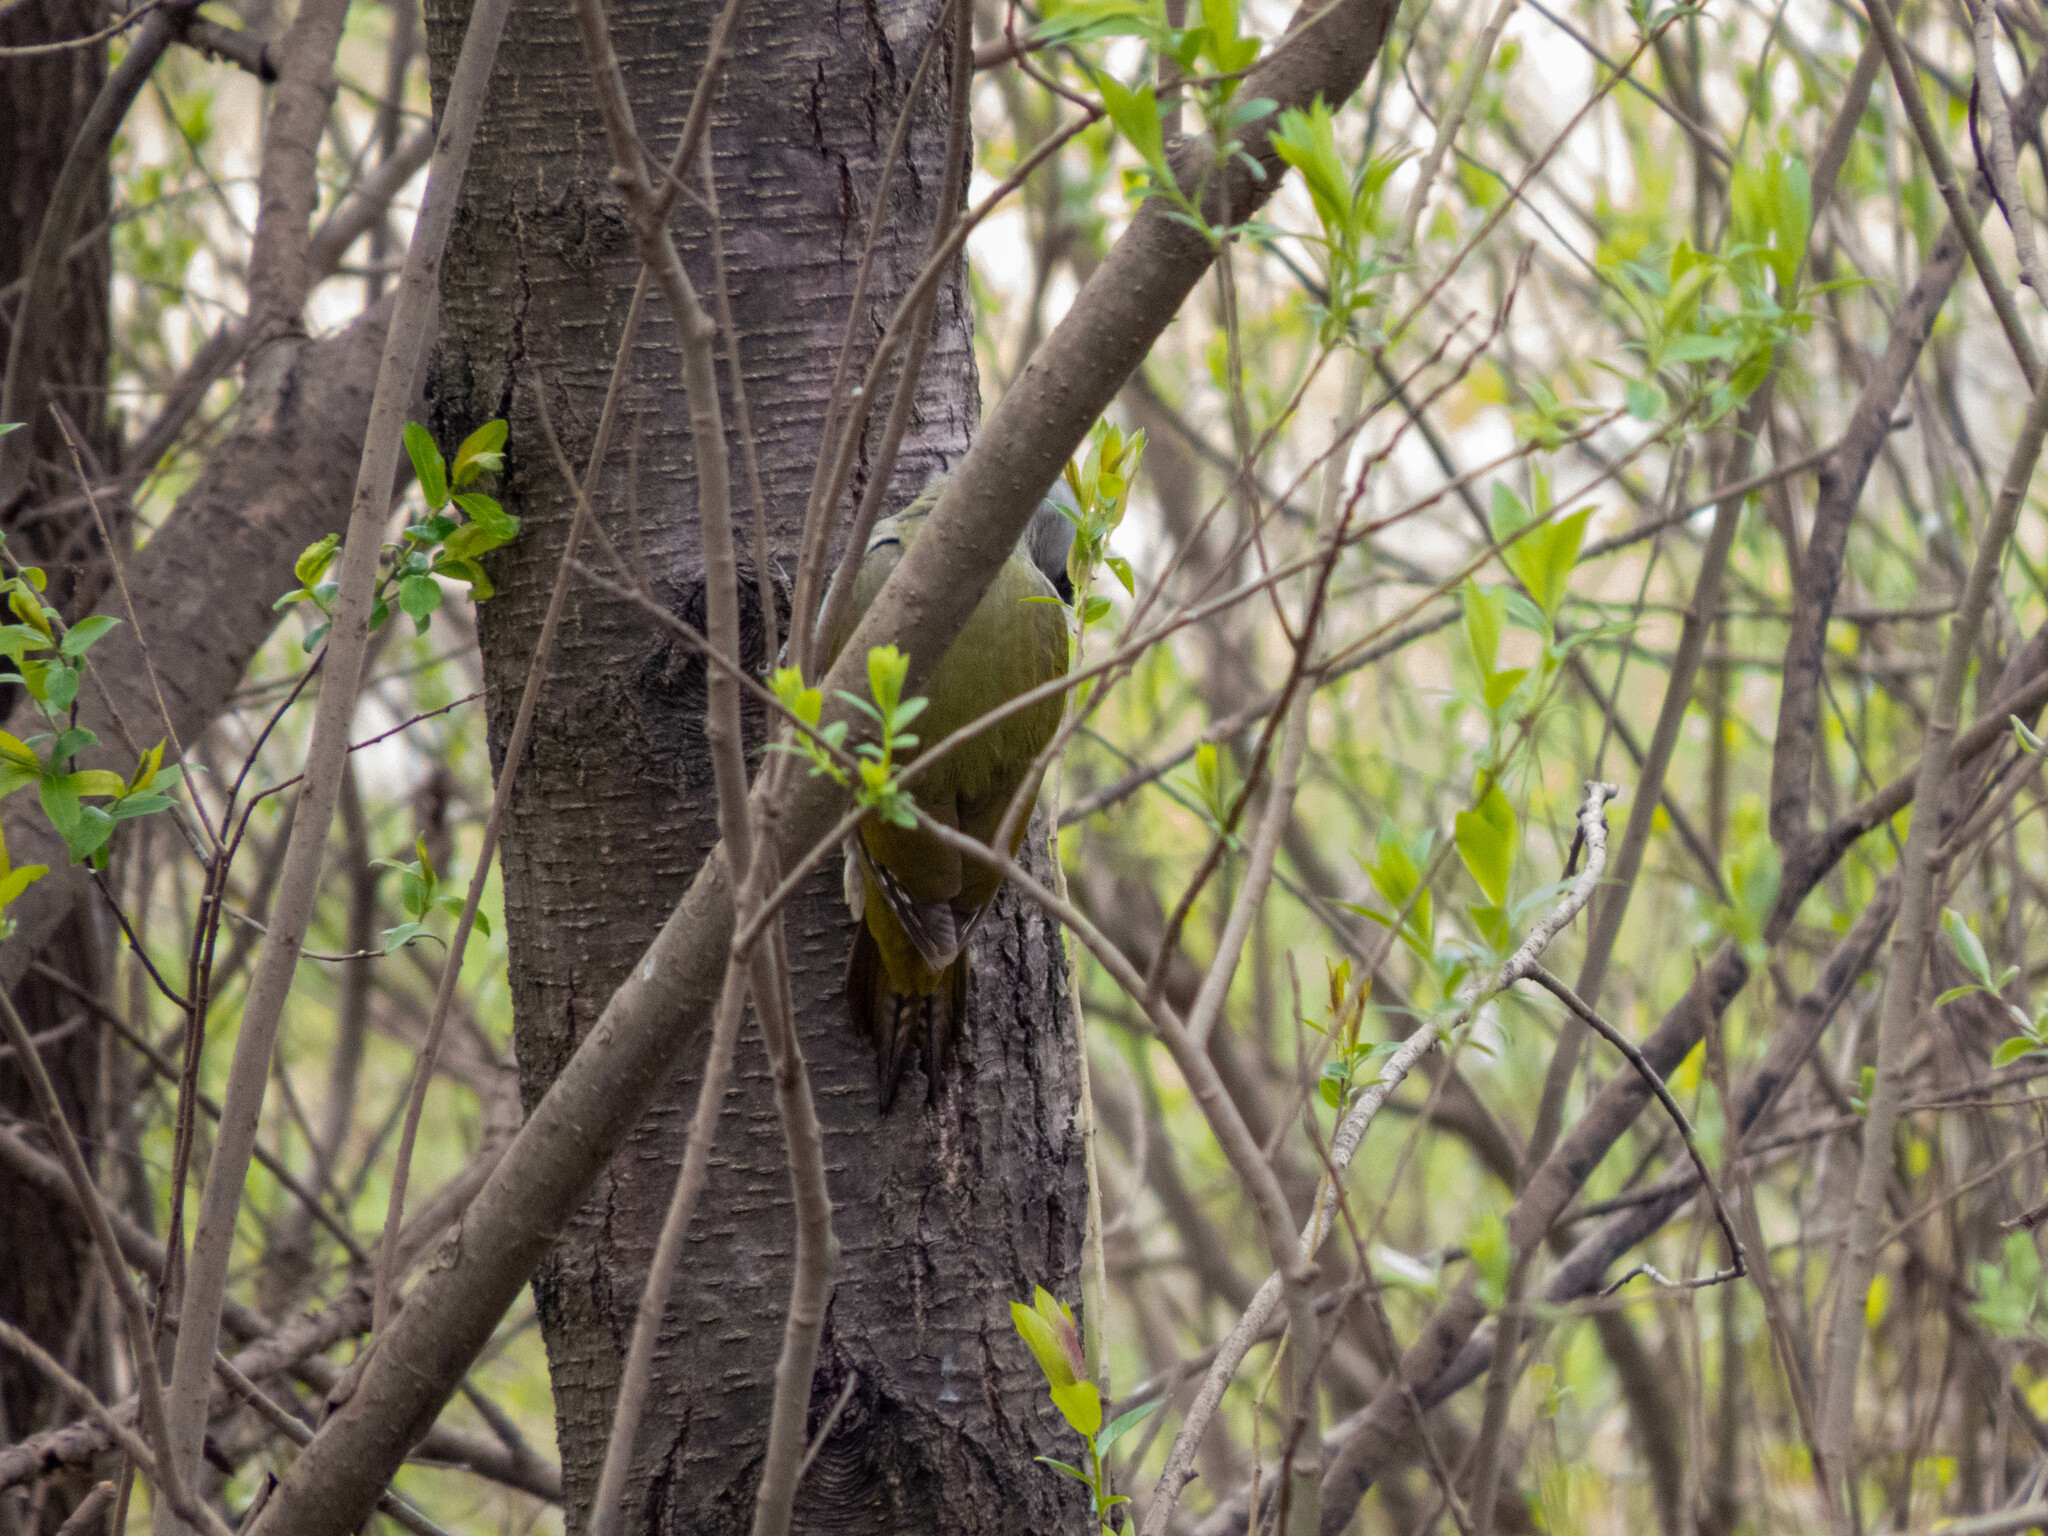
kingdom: Animalia
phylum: Chordata
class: Aves
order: Piciformes
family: Picidae
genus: Picus
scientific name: Picus canus
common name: Grey-headed woodpecker
